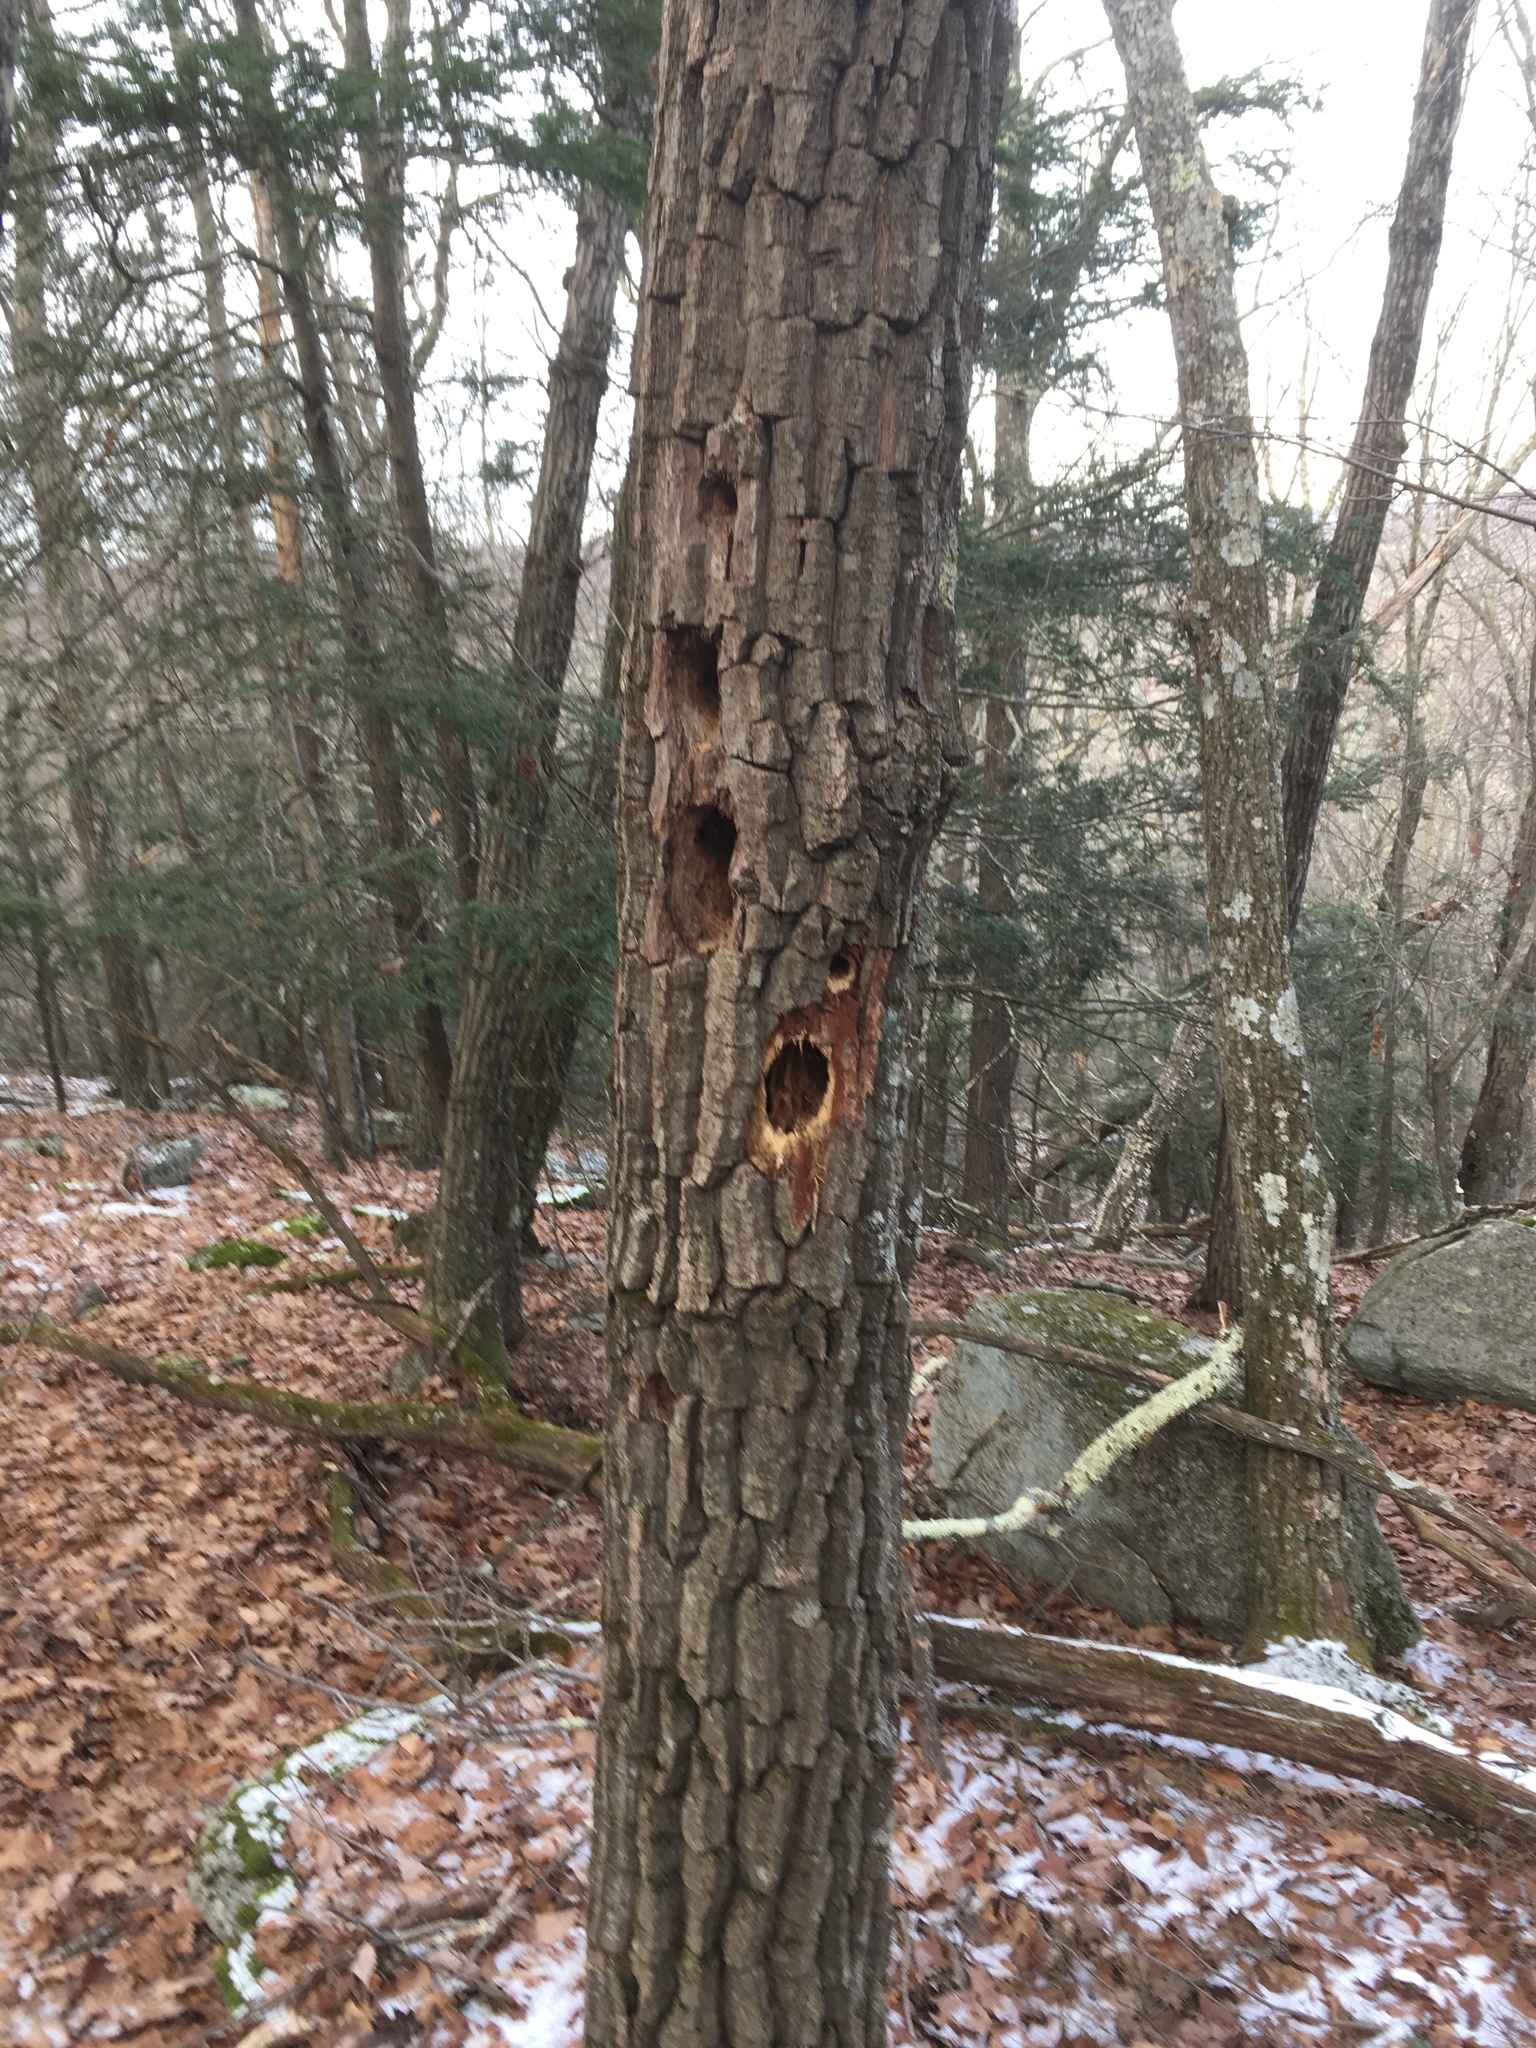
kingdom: Animalia
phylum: Chordata
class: Aves
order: Piciformes
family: Picidae
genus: Dryocopus
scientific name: Dryocopus pileatus
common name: Pileated woodpecker
